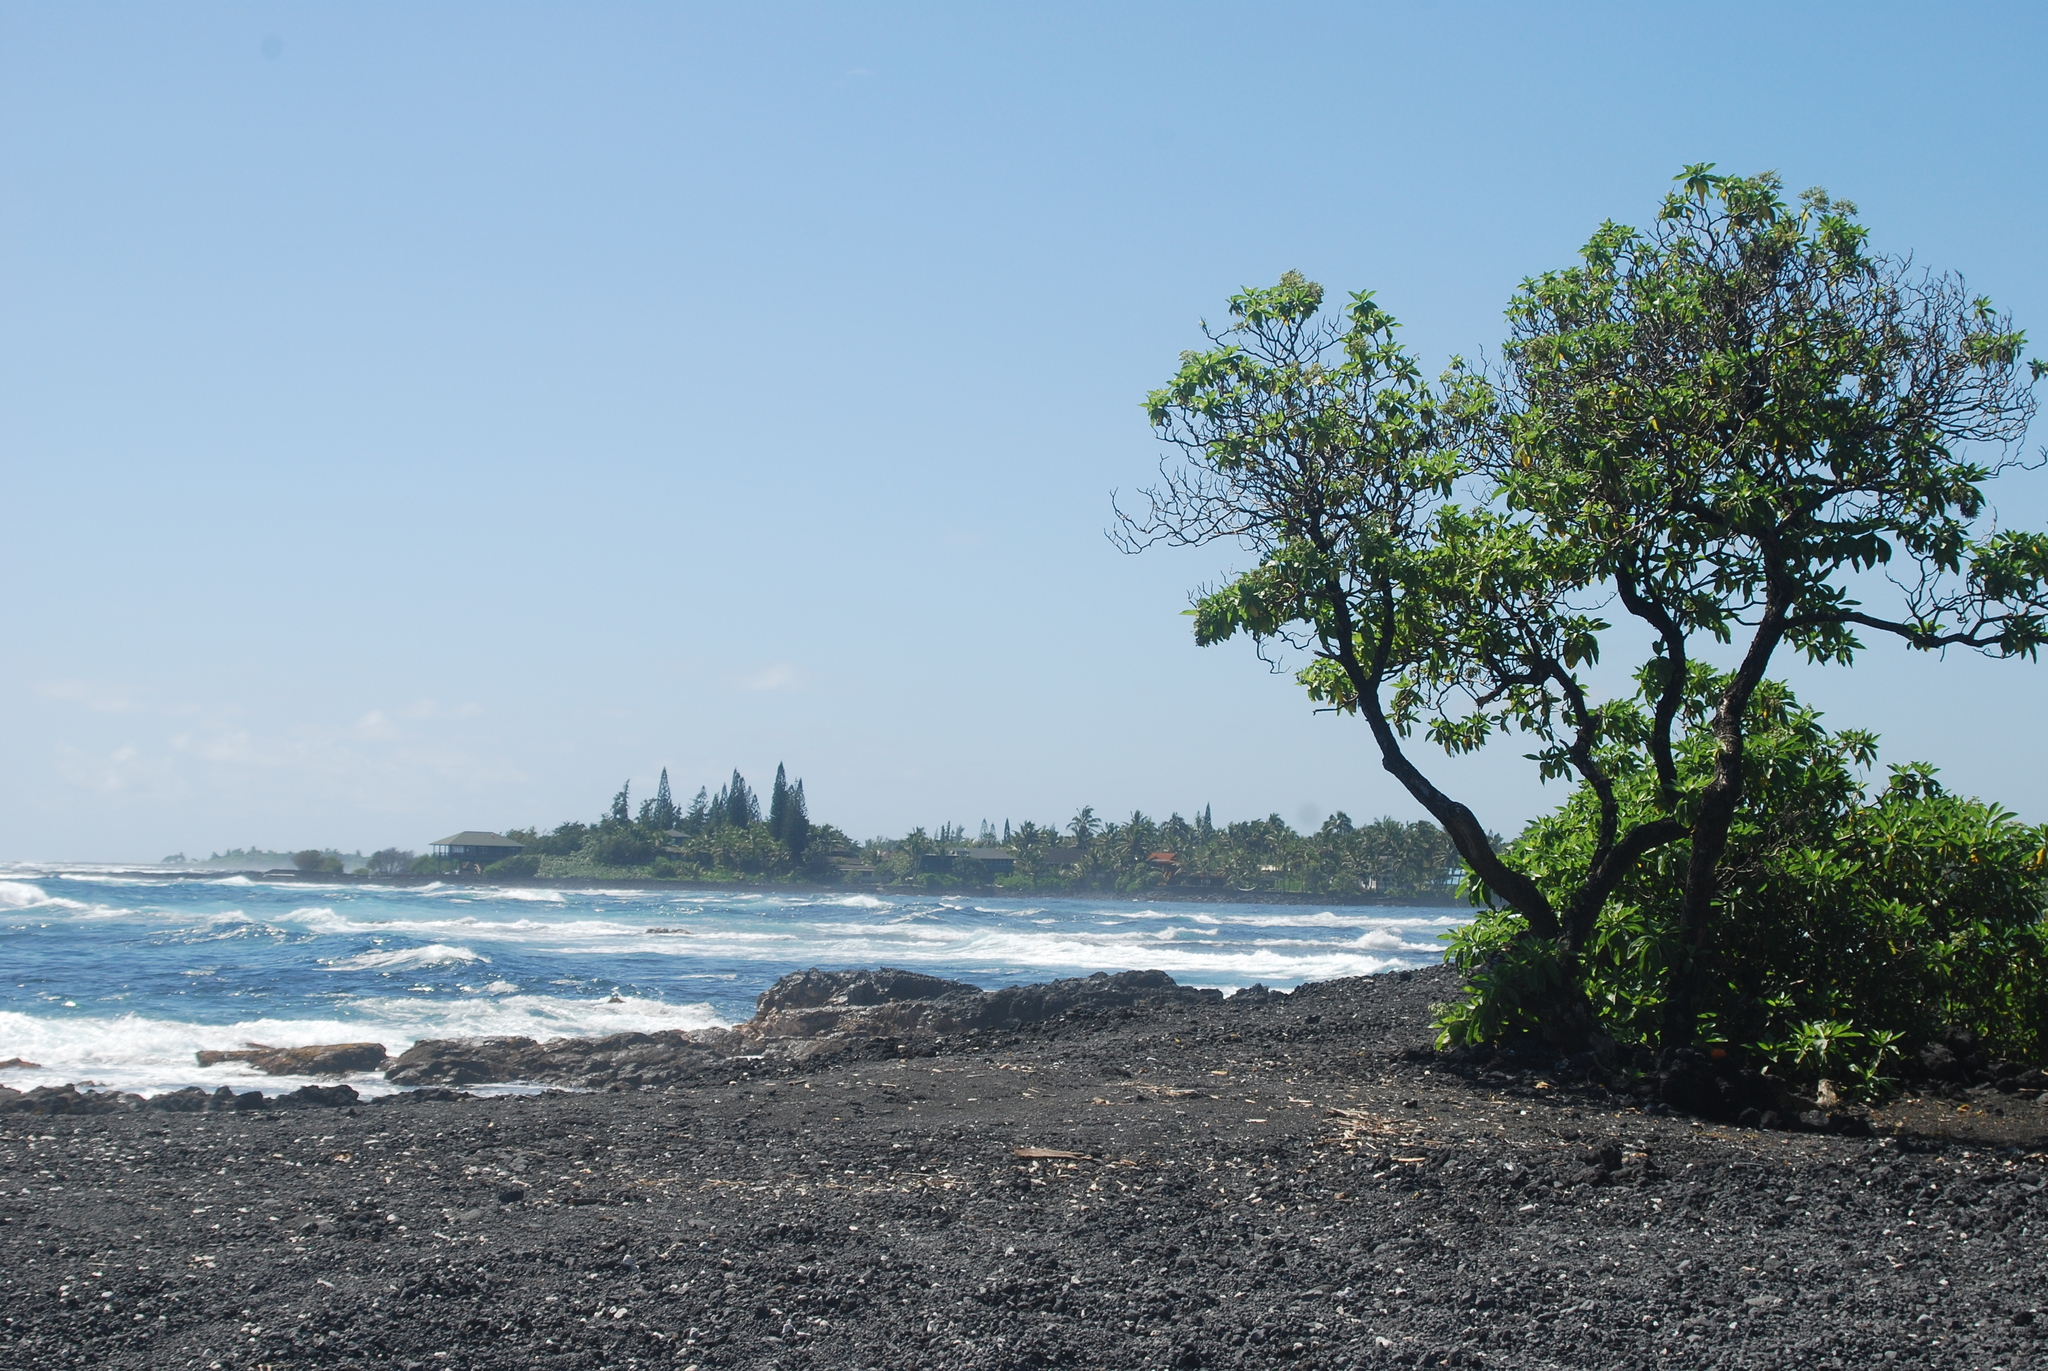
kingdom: Plantae
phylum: Tracheophyta
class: Magnoliopsida
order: Boraginales
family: Heliotropiaceae
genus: Heliotropium
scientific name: Heliotropium velutinum
